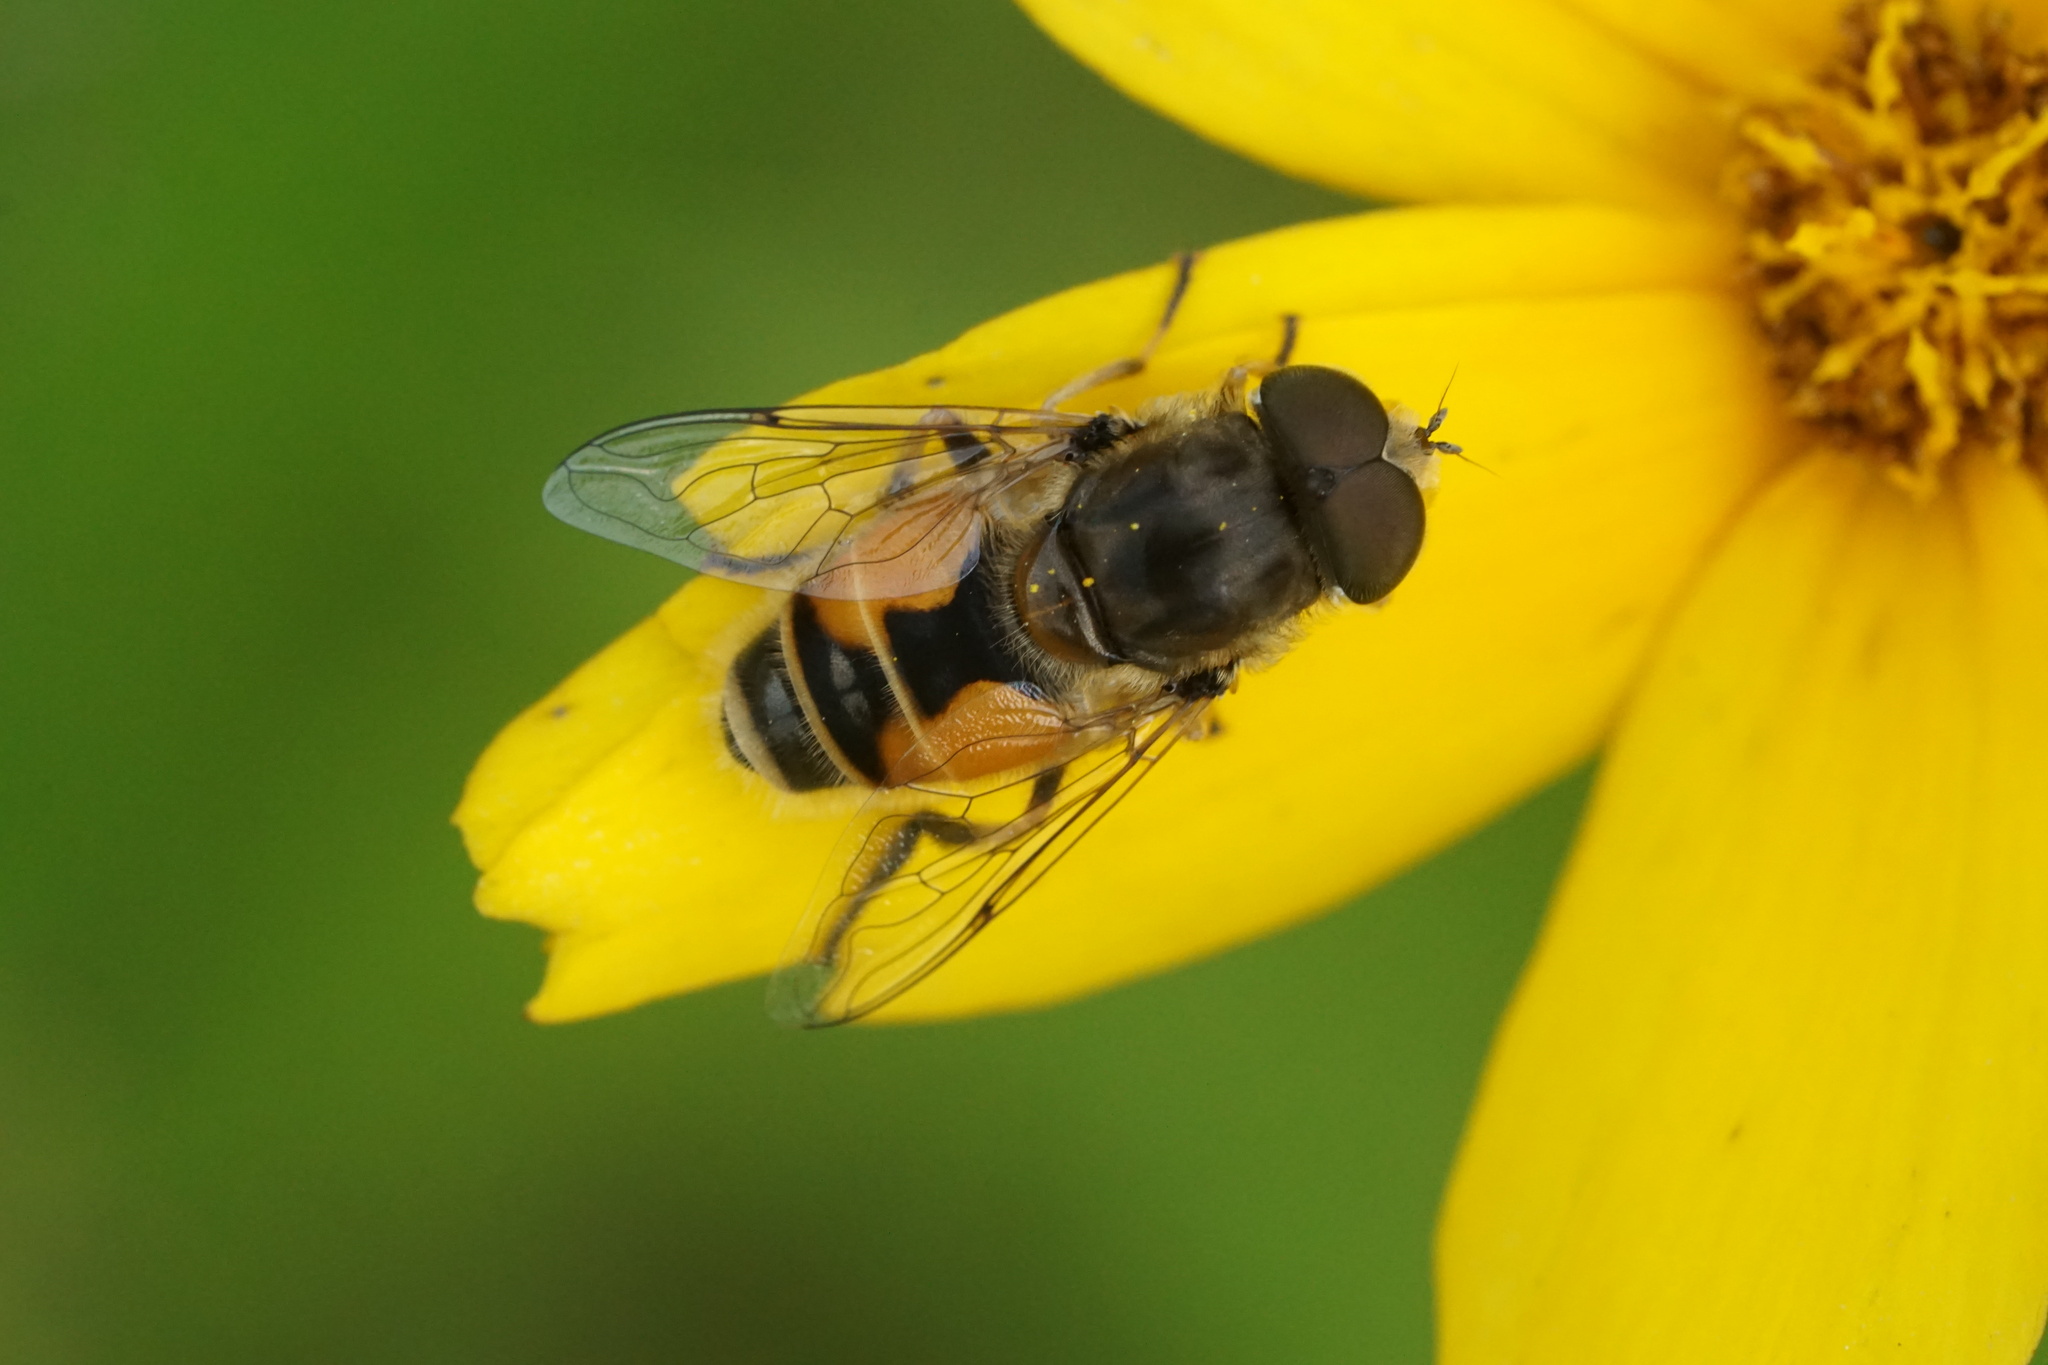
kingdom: Animalia
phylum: Arthropoda
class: Insecta
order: Diptera
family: Syrphidae
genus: Eristalis
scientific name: Eristalis arbustorum
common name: Hover fly
